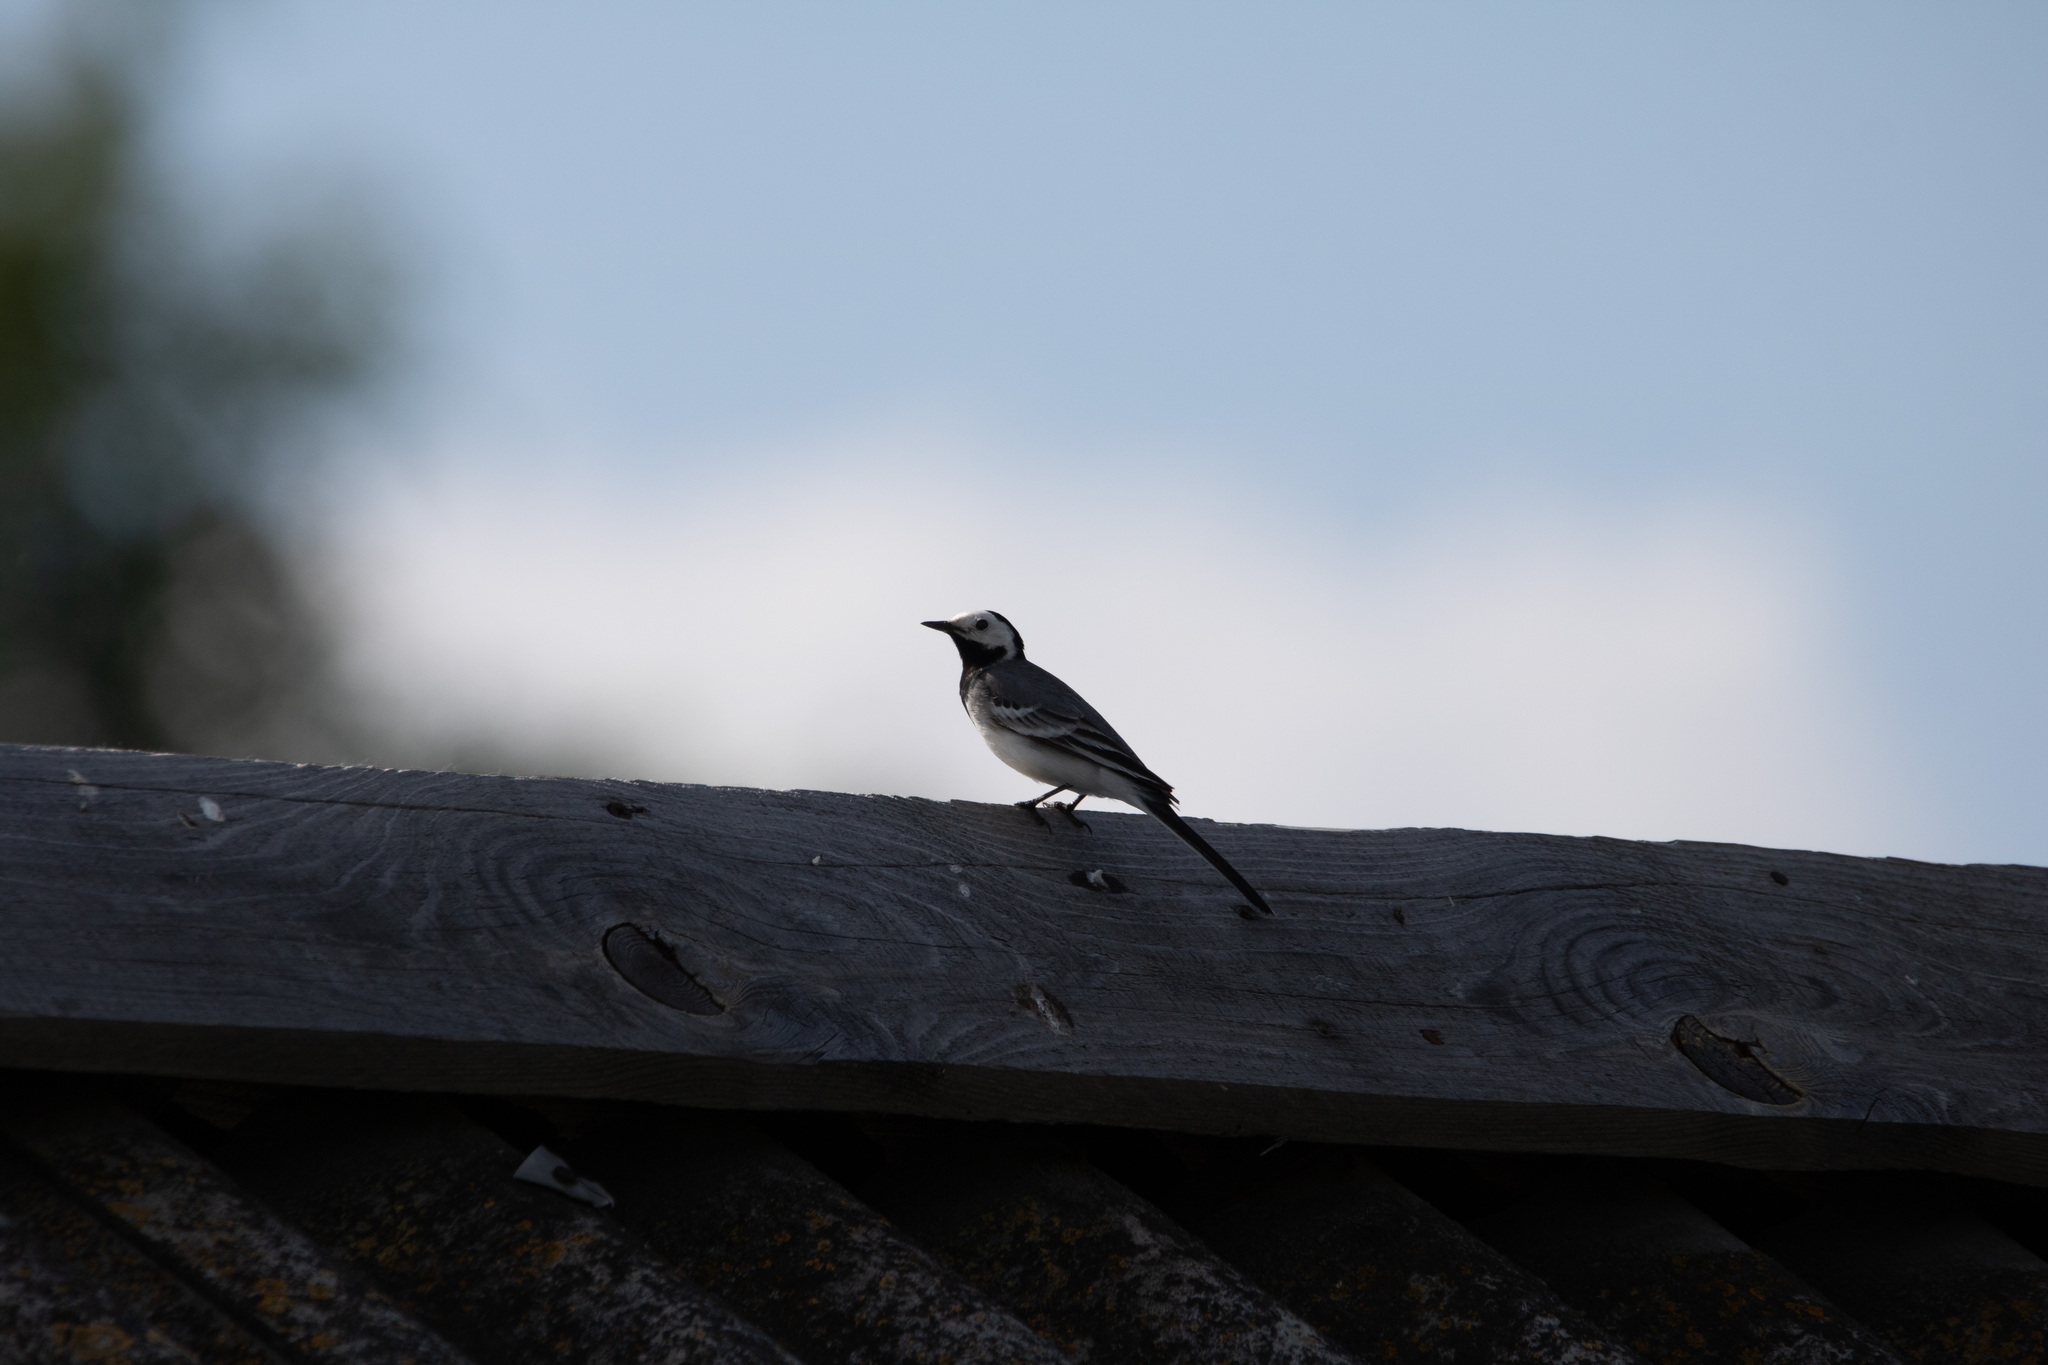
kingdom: Animalia
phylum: Chordata
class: Aves
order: Passeriformes
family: Motacillidae
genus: Motacilla
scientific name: Motacilla alba
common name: White wagtail
